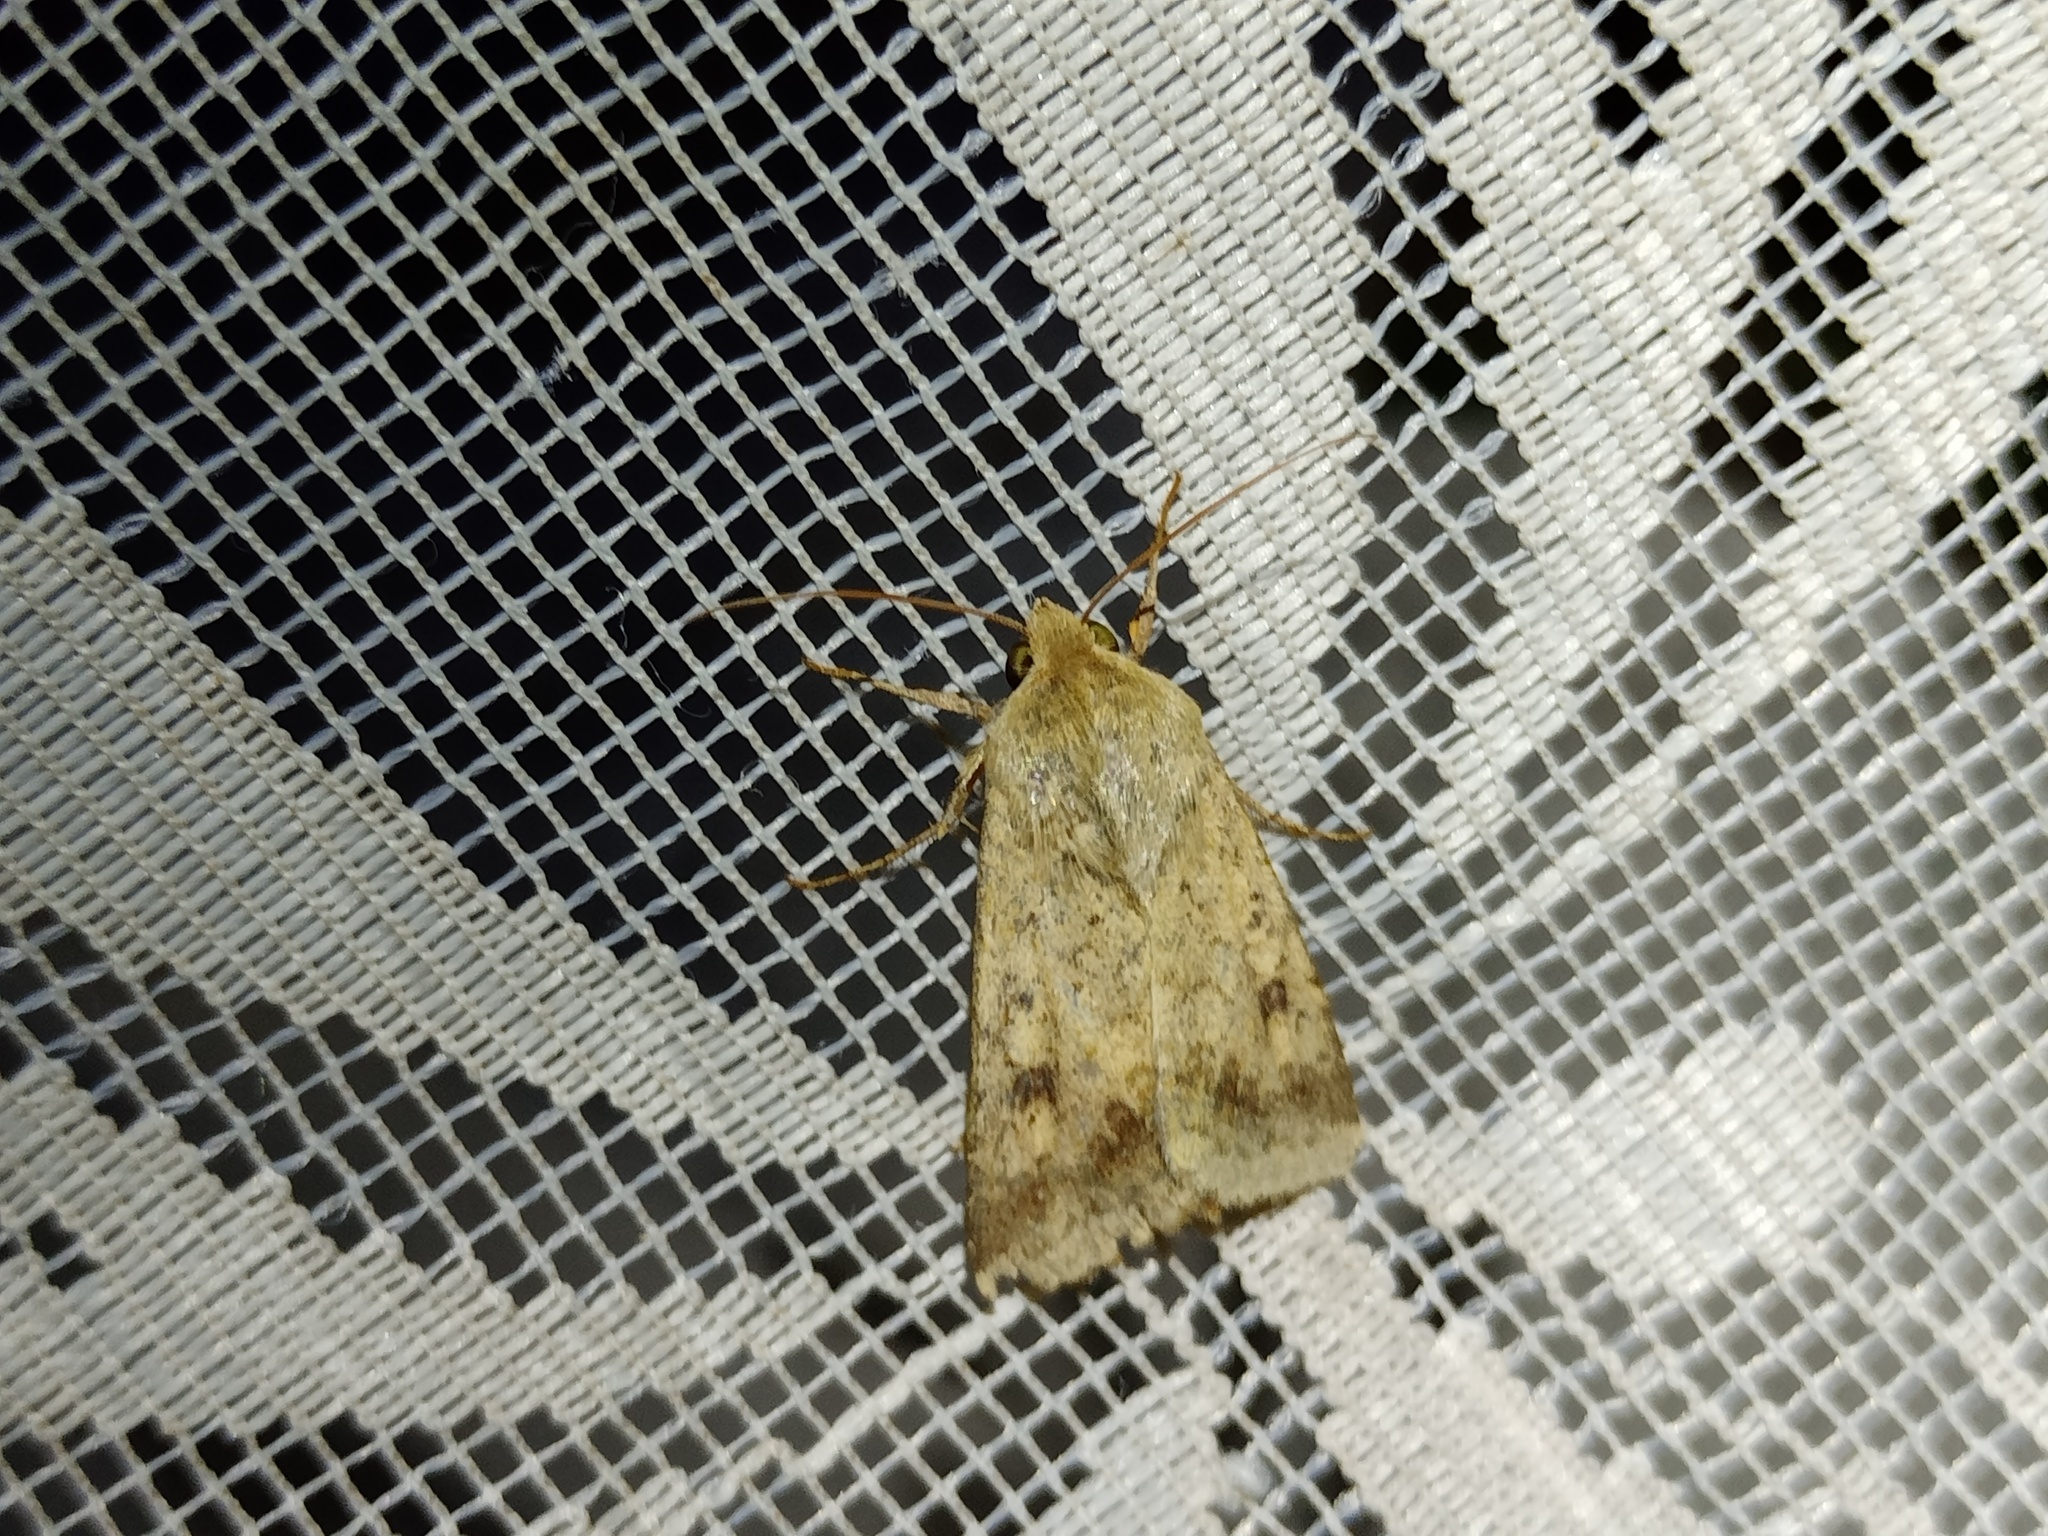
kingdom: Animalia
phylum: Arthropoda
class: Insecta
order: Lepidoptera
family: Noctuidae
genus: Helicoverpa
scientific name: Helicoverpa armigera
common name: Cotton bollworm
